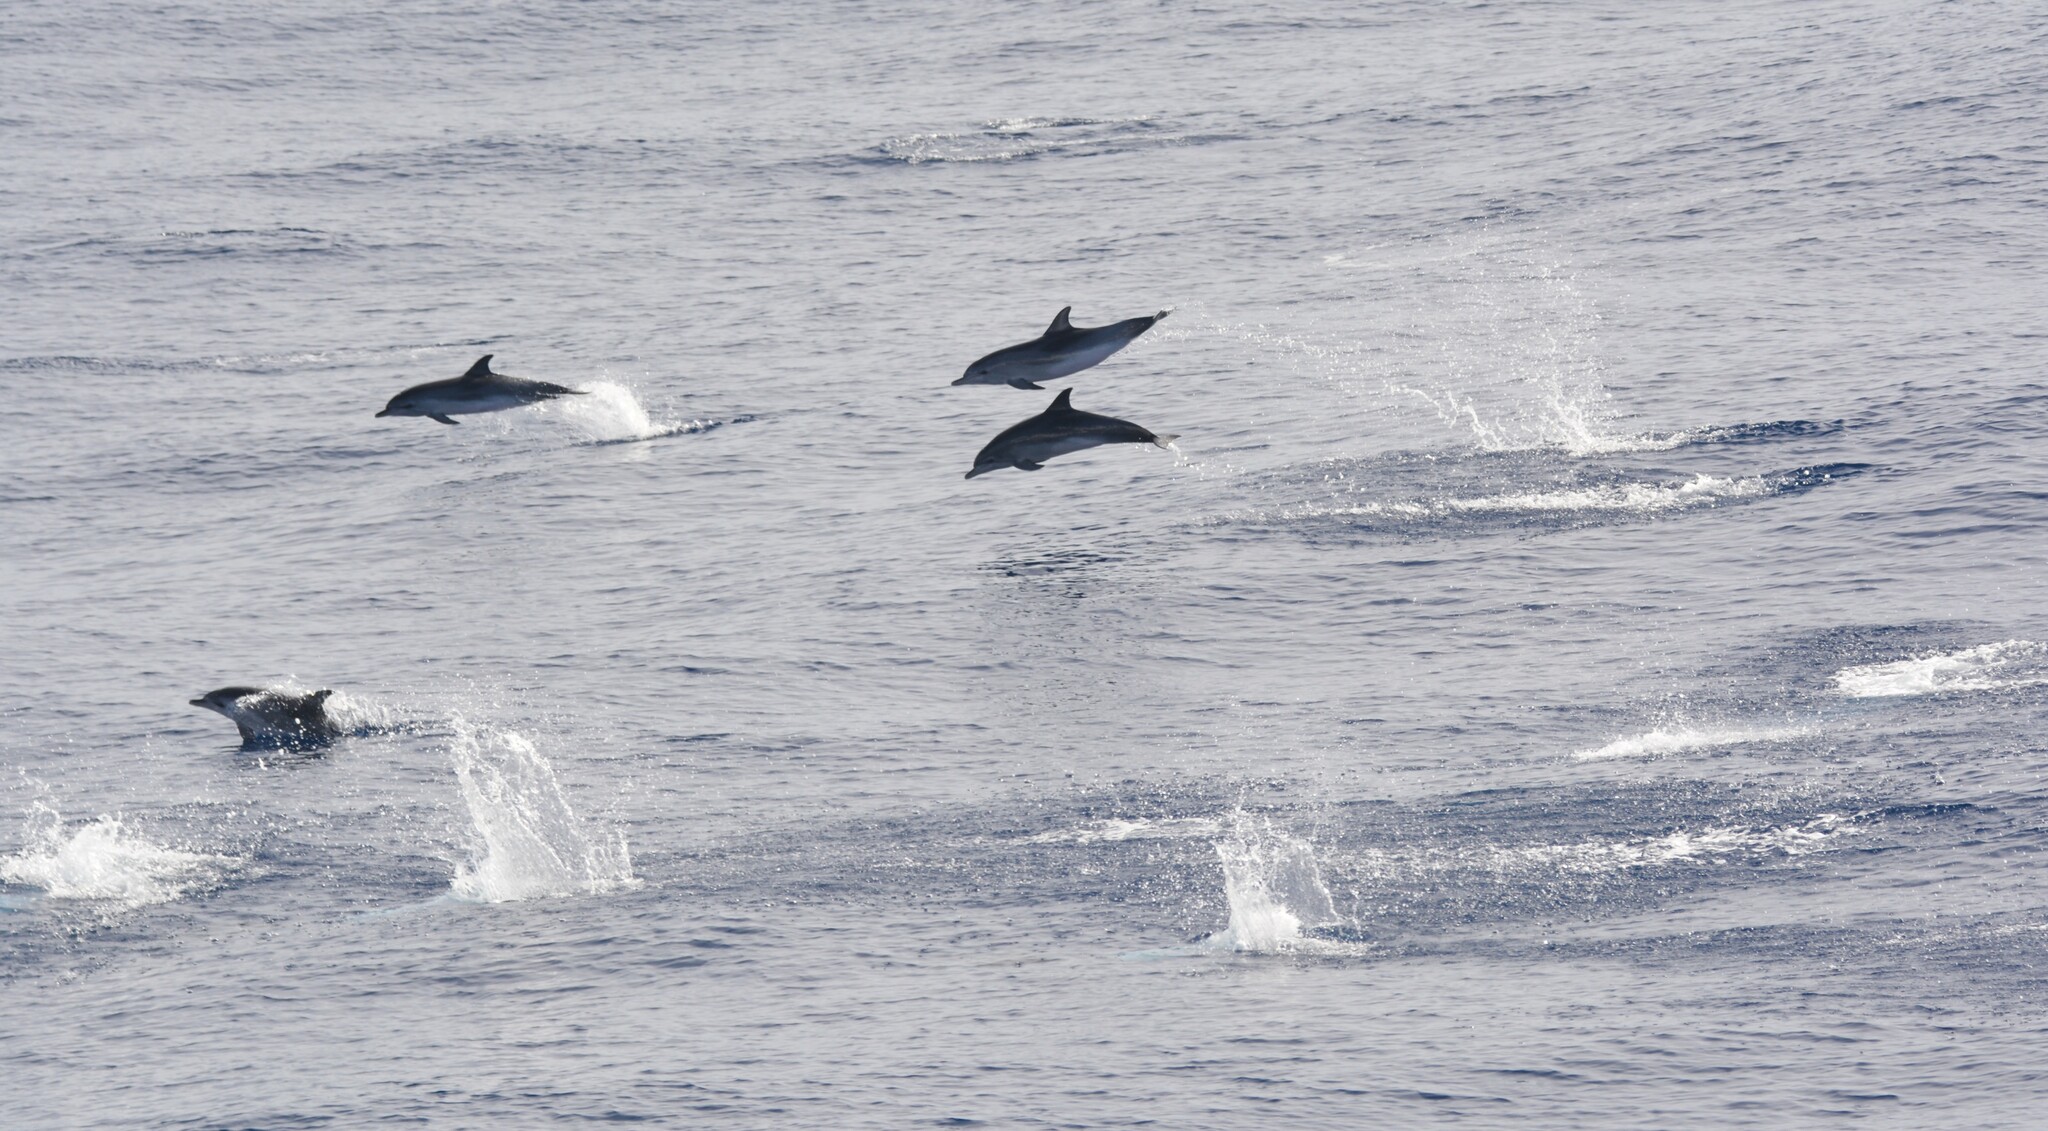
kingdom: Animalia
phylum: Chordata
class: Mammalia
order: Cetacea
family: Delphinidae
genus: Stenella
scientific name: Stenella frontalis
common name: Atlantic spotted dolphin
